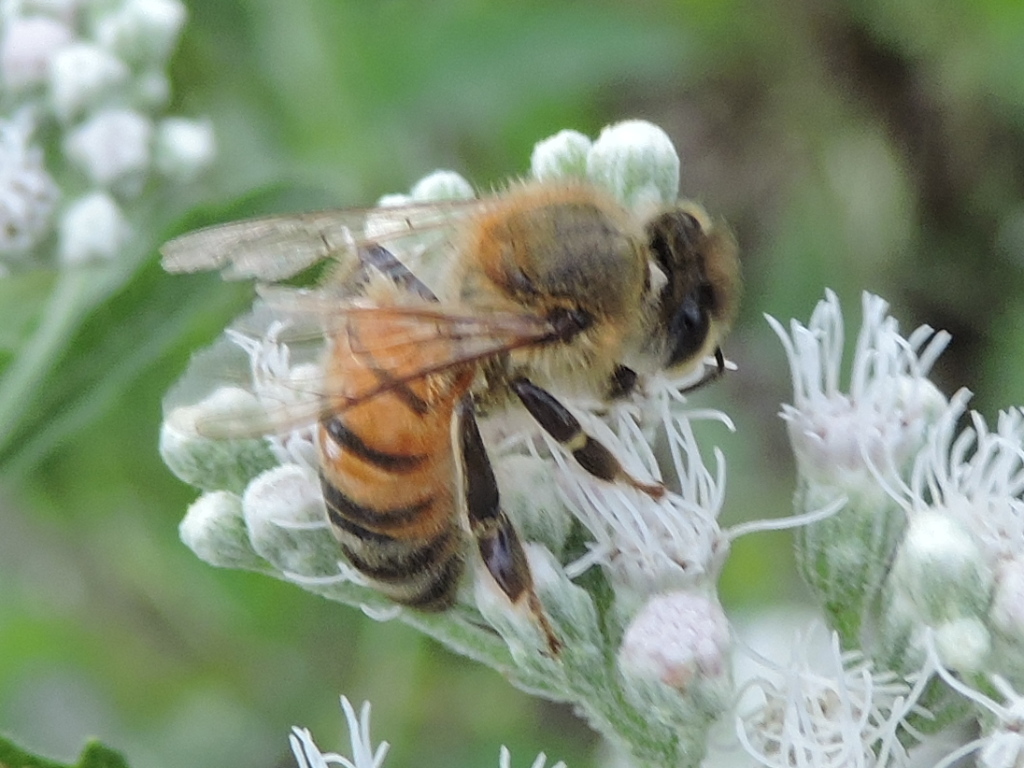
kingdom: Animalia
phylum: Arthropoda
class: Insecta
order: Hymenoptera
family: Apidae
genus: Apis
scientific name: Apis mellifera
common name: Honey bee
